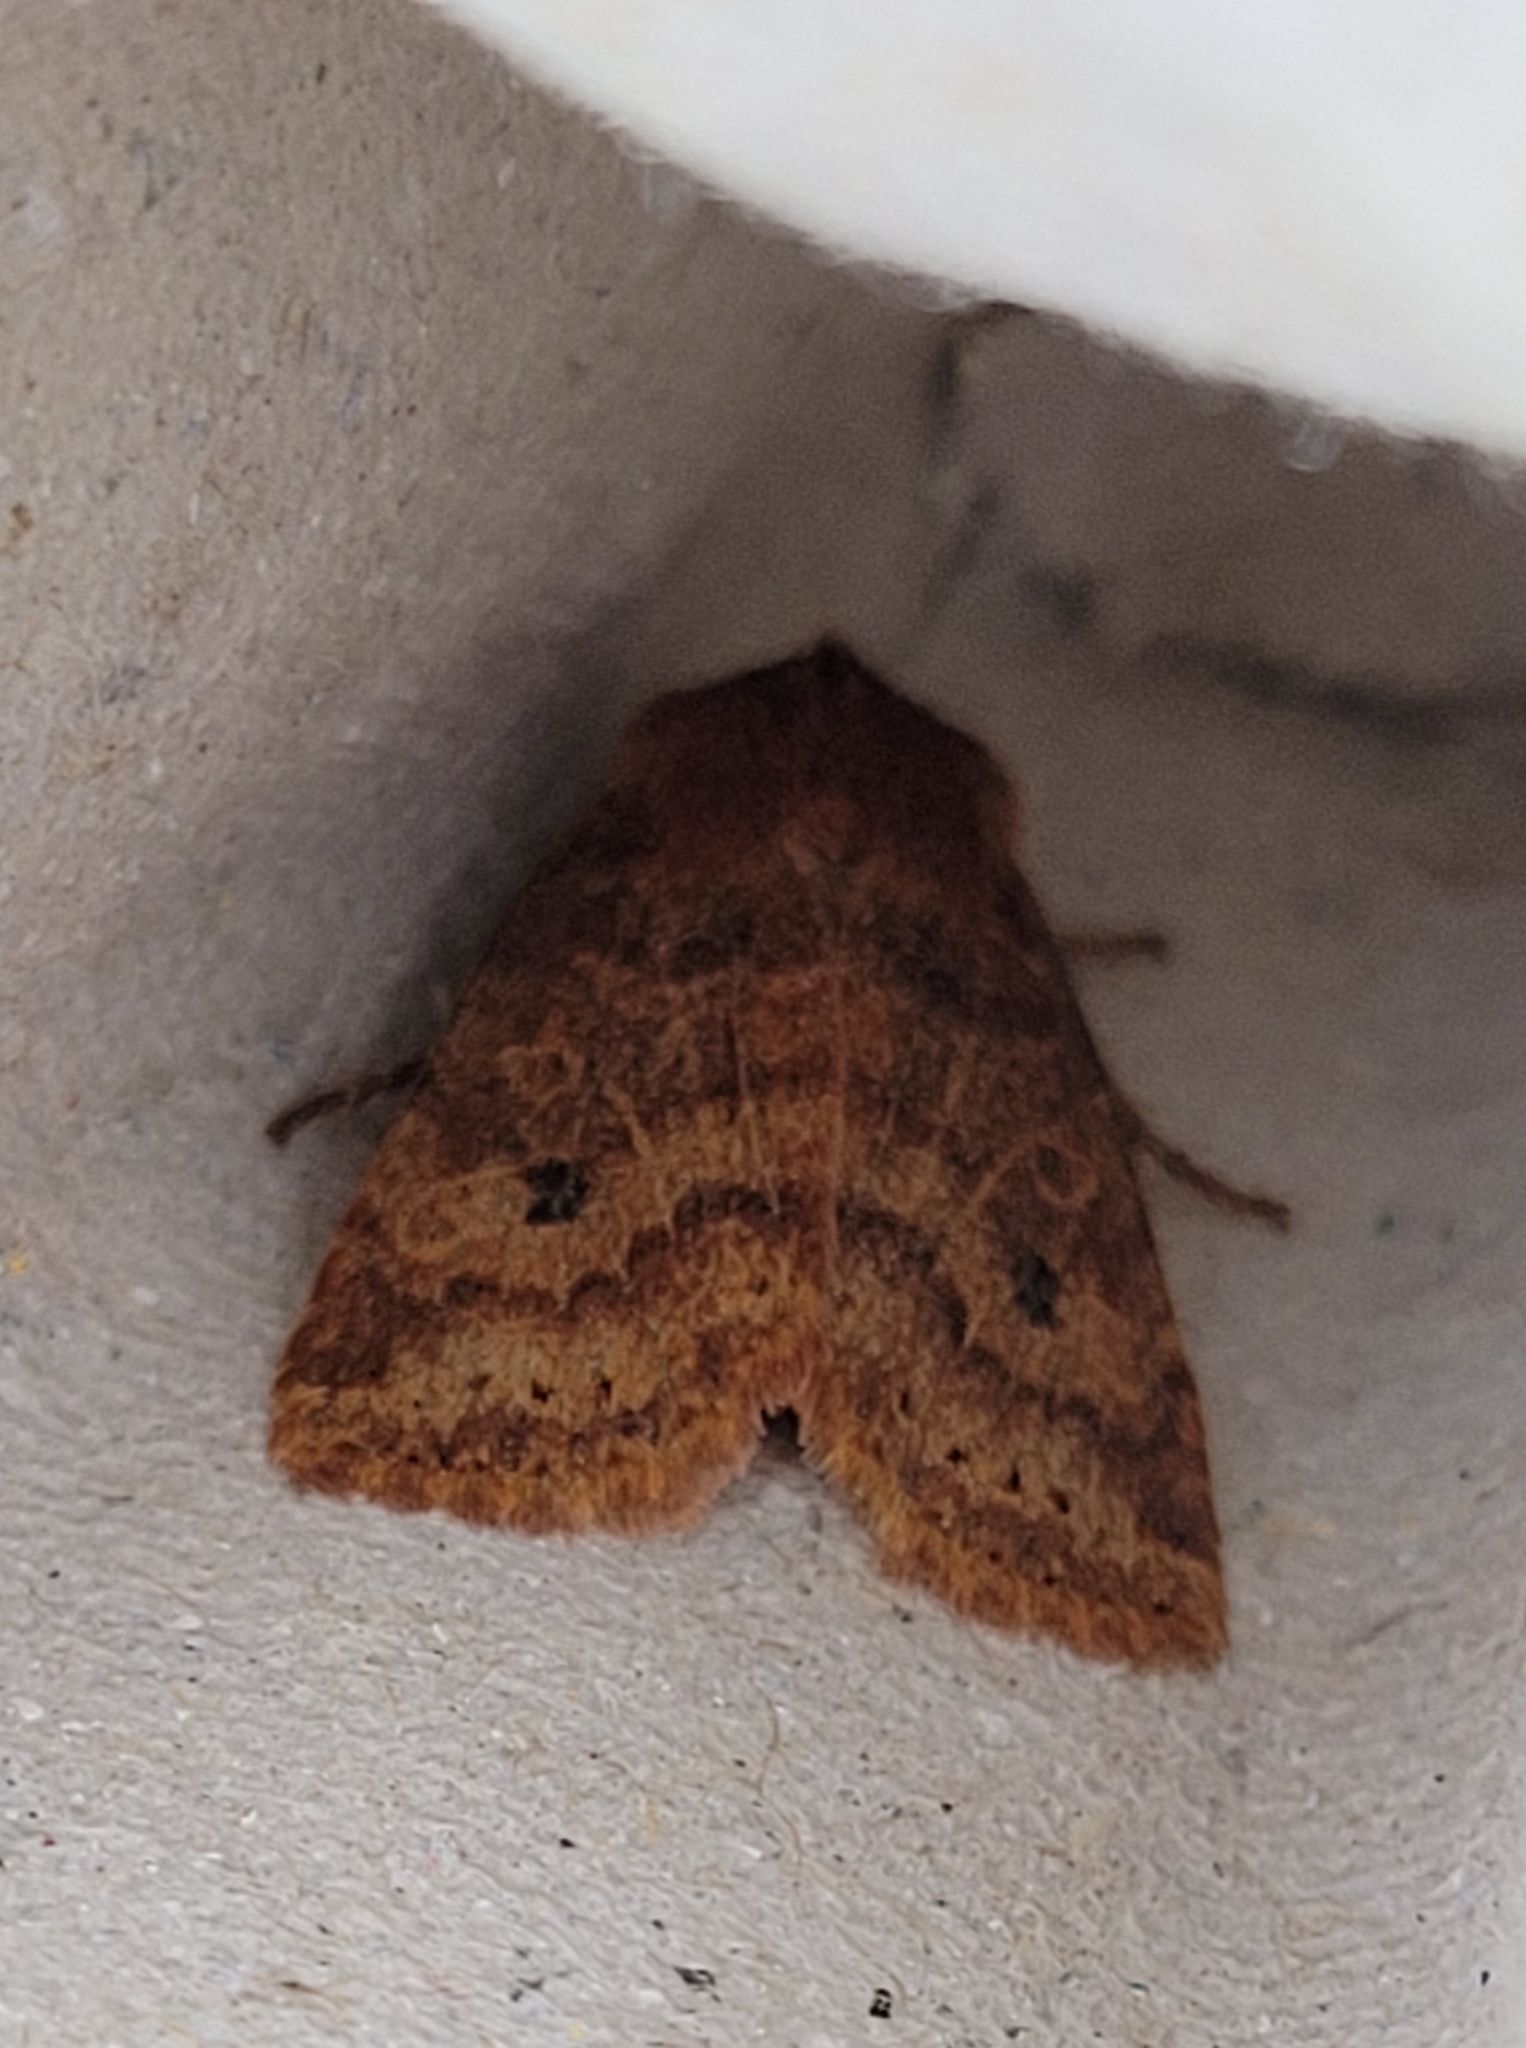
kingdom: Animalia
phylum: Arthropoda
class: Insecta
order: Lepidoptera
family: Noctuidae
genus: Conistra
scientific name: Conistra vaccinii
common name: Chestnut
